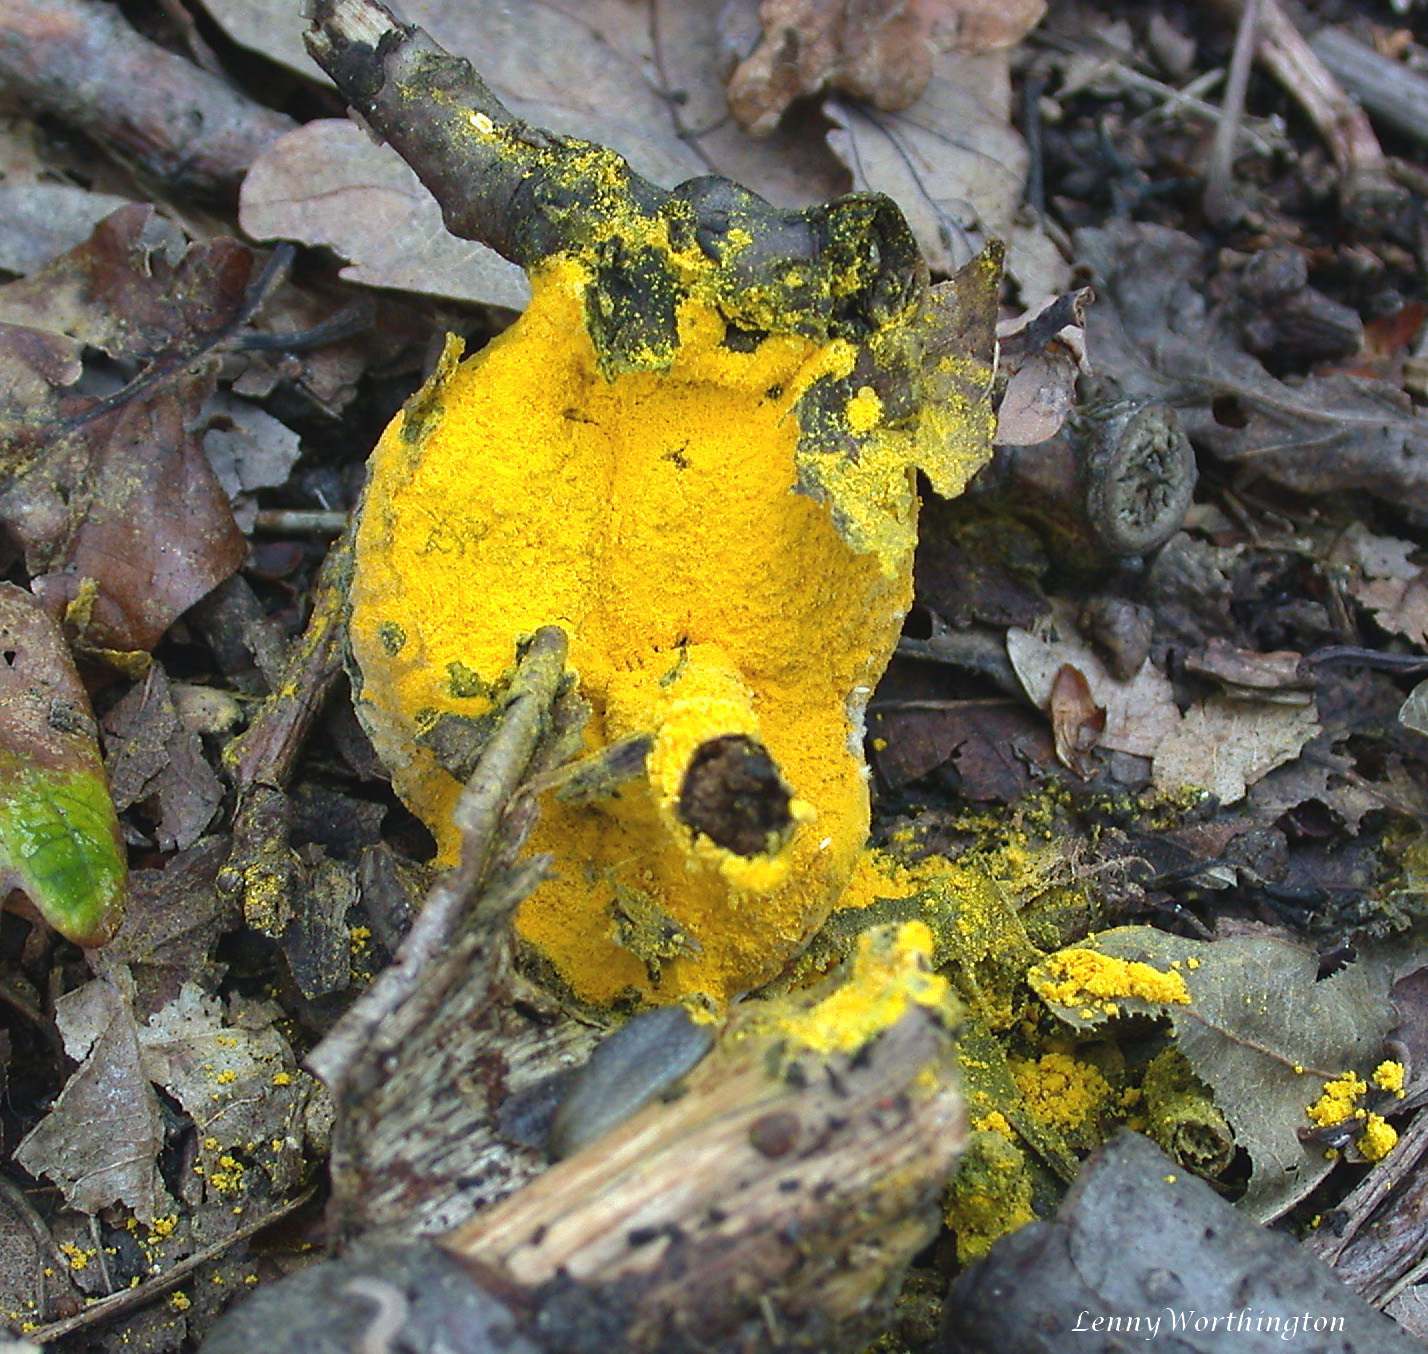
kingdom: Protozoa
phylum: Mycetozoa
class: Myxomycetes
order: Physarales
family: Physaraceae
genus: Fuligo
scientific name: Fuligo septica
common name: Dog vomit slime mold
